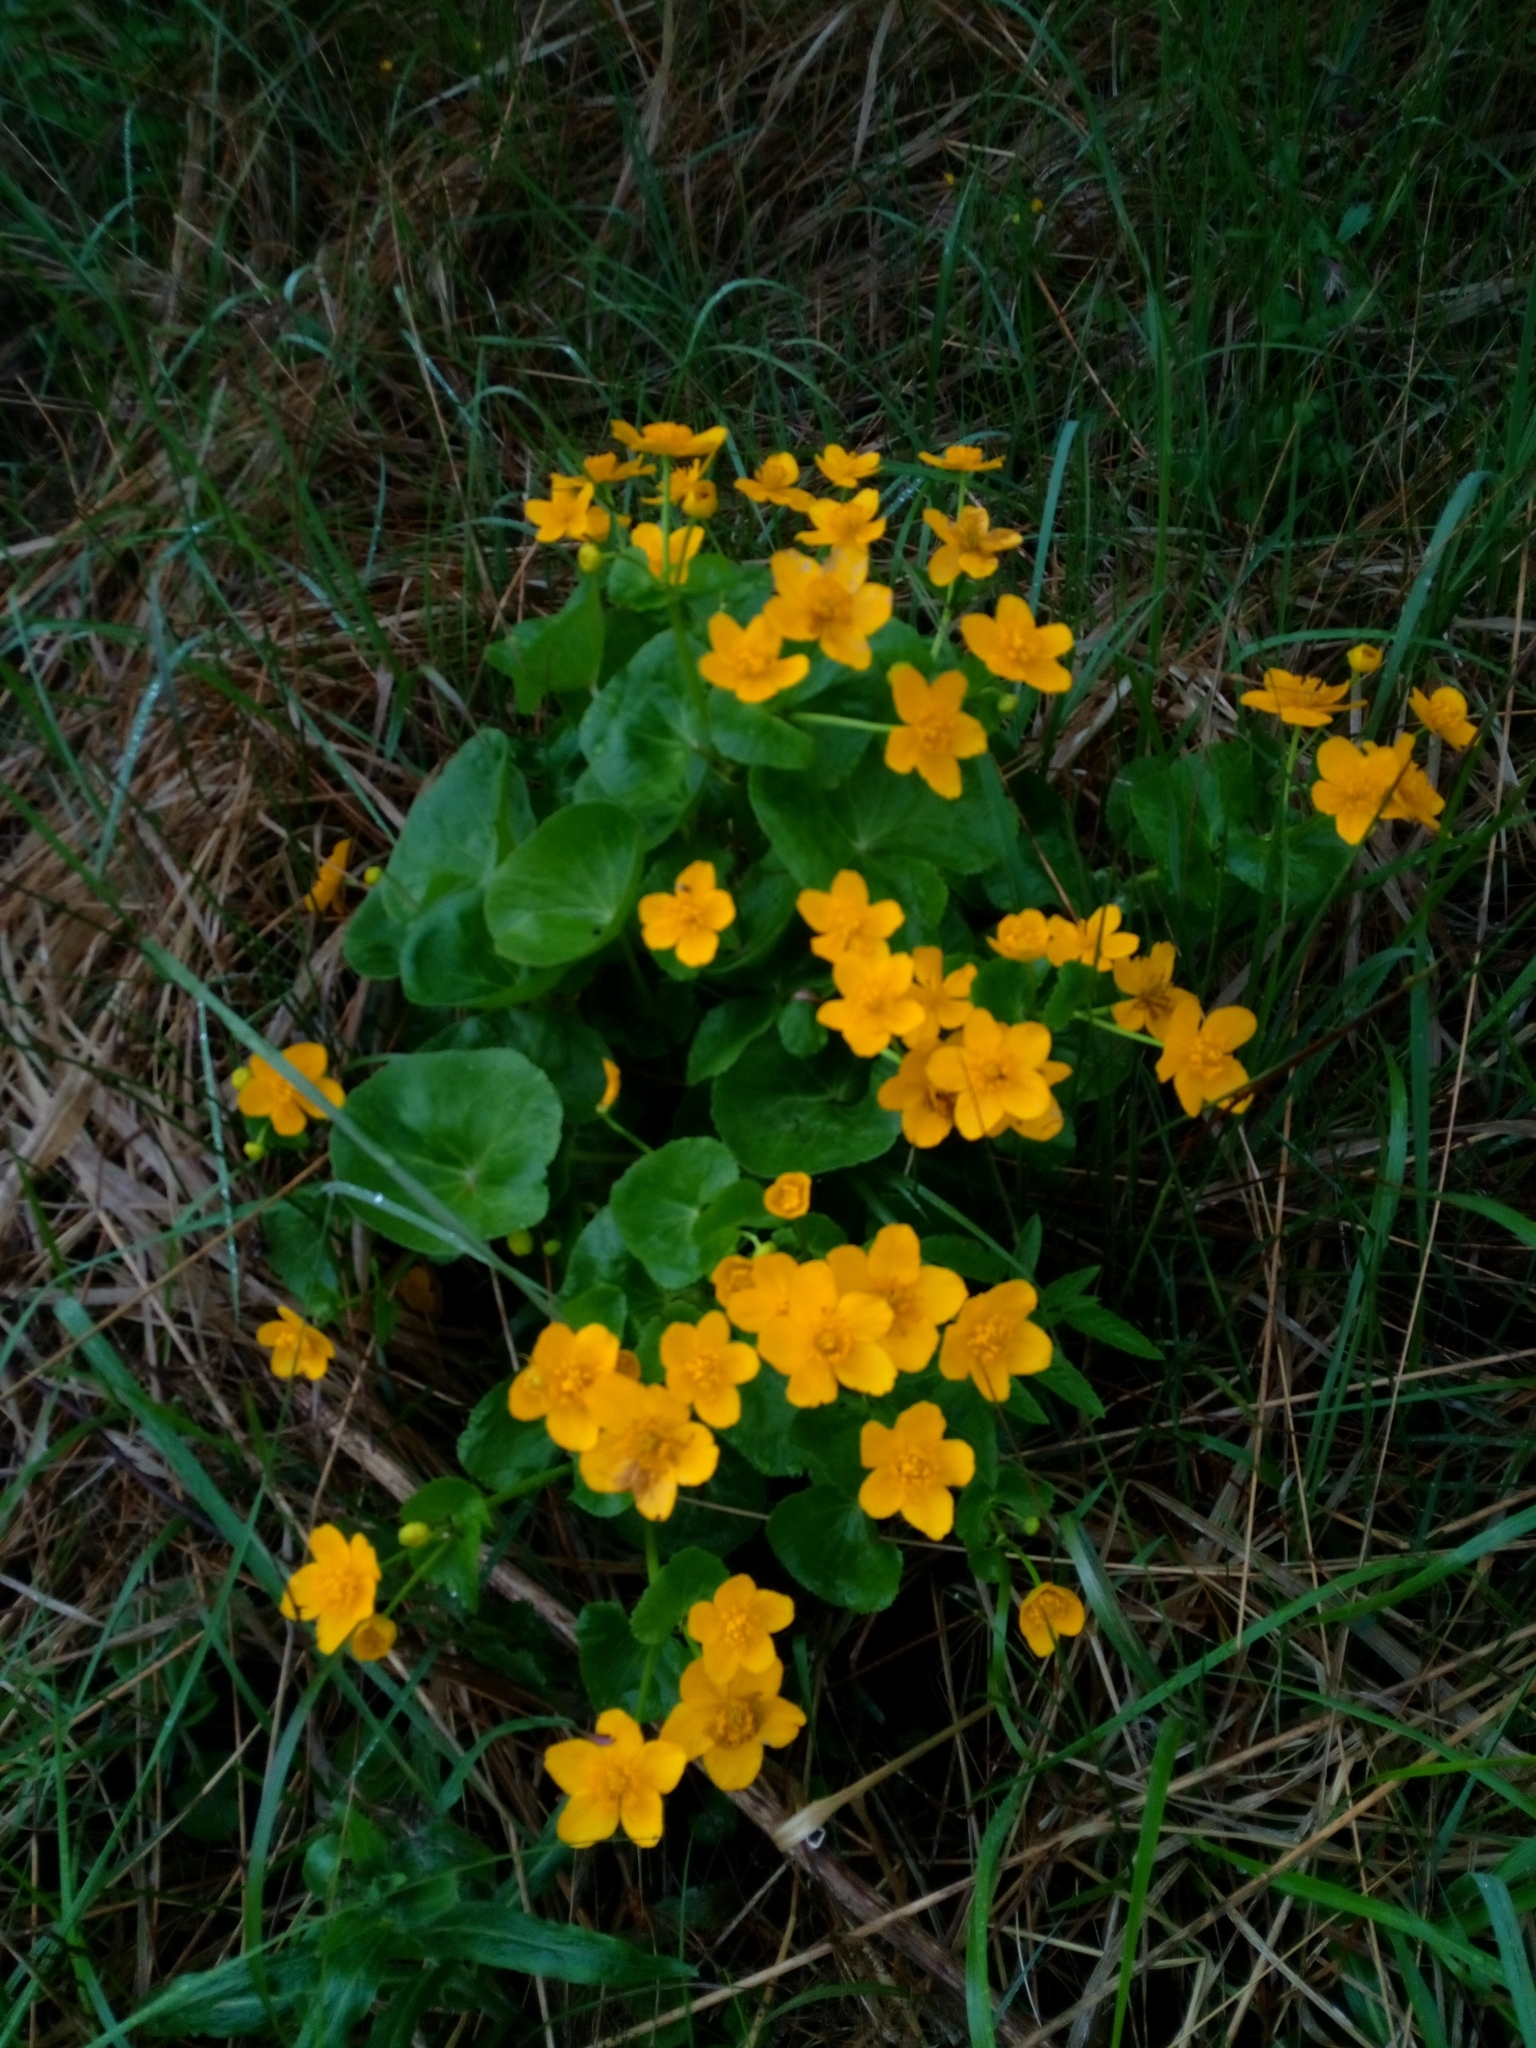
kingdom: Plantae
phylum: Tracheophyta
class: Magnoliopsida
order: Ranunculales
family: Ranunculaceae
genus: Caltha
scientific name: Caltha palustris
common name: Marsh marigold
